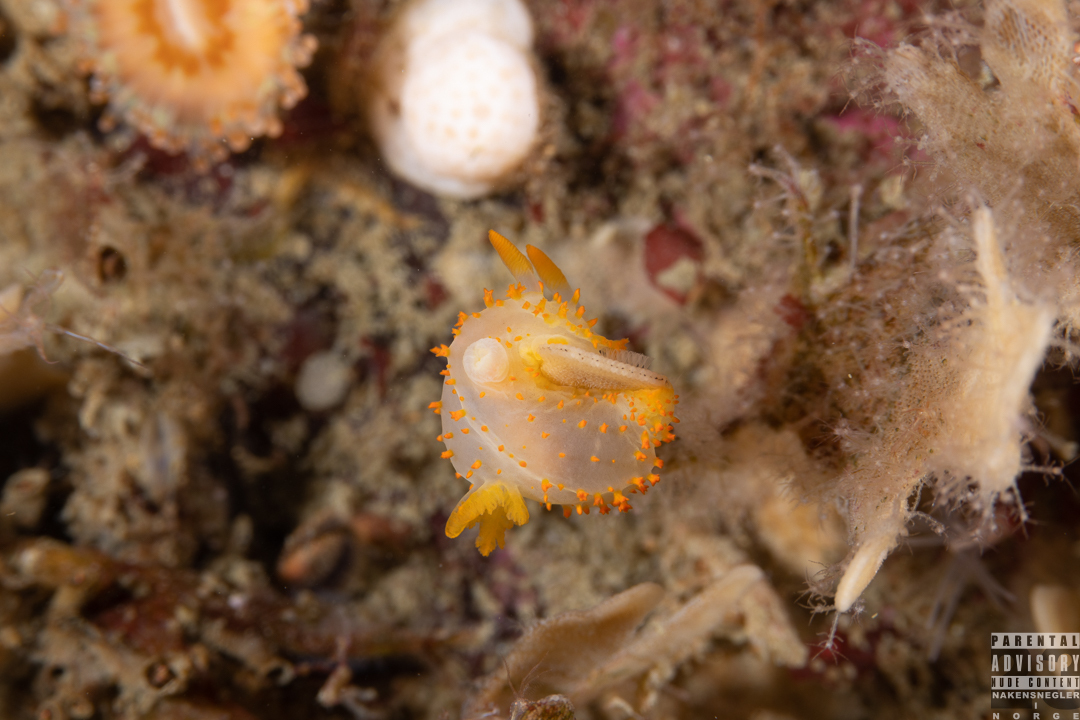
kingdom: Animalia
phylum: Mollusca
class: Gastropoda
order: Nudibranchia
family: Polyceridae
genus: Crimora
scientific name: Crimora papillata
